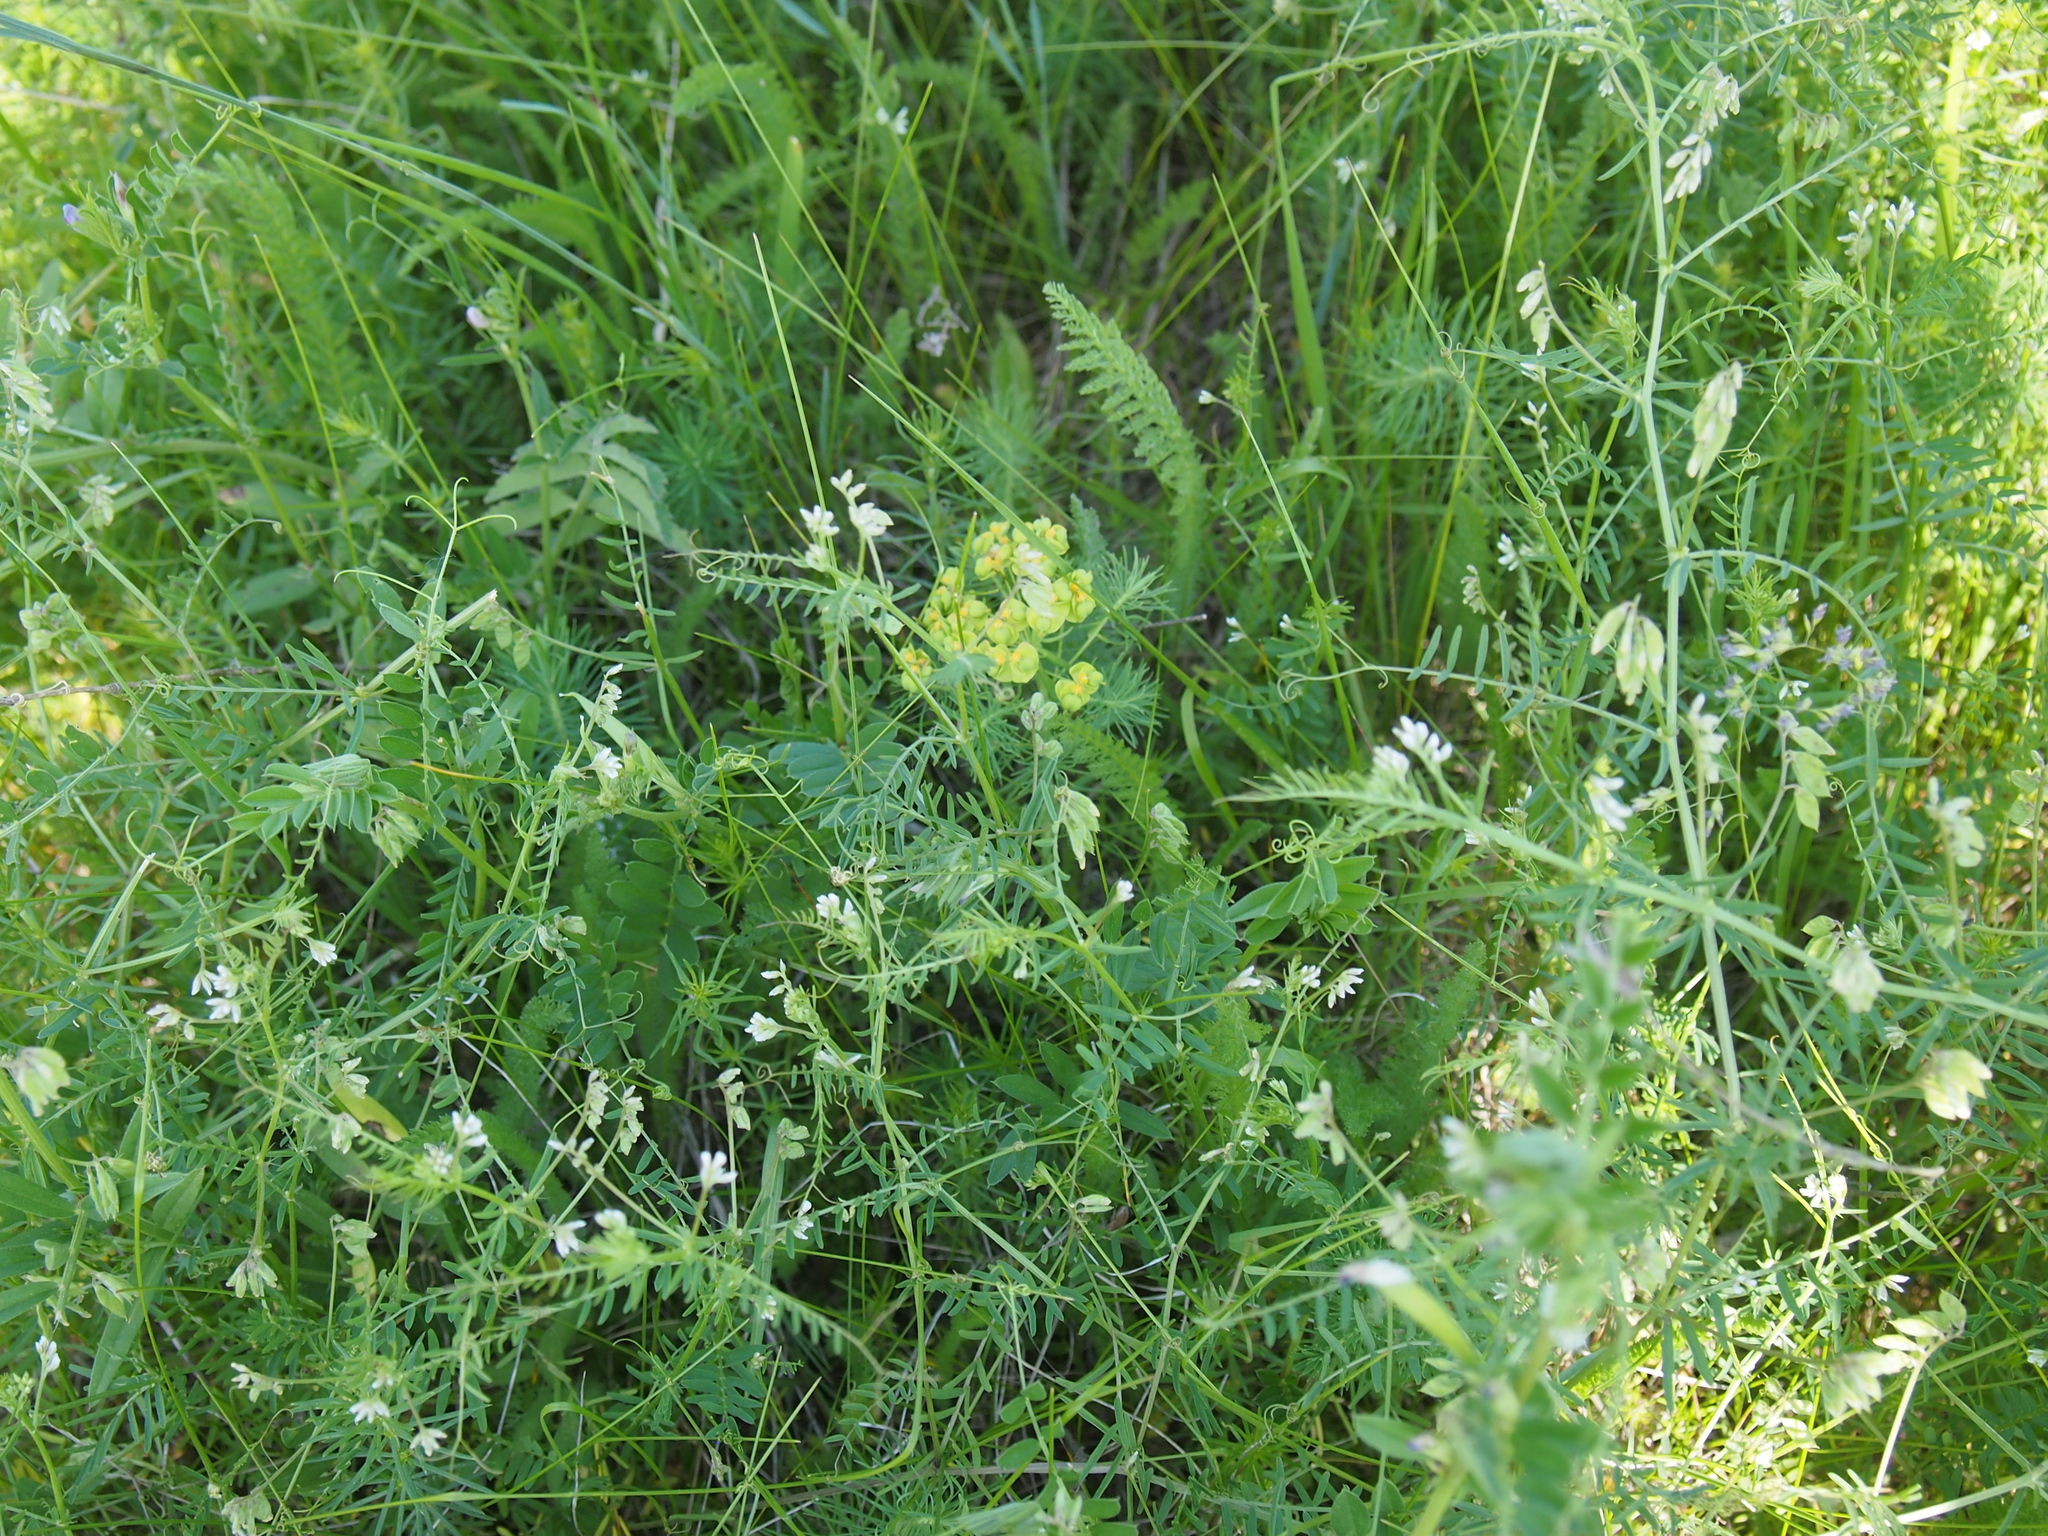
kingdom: Plantae
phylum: Tracheophyta
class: Magnoliopsida
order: Fabales
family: Fabaceae
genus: Vicia
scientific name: Vicia hirsuta
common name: Tiny vetch
